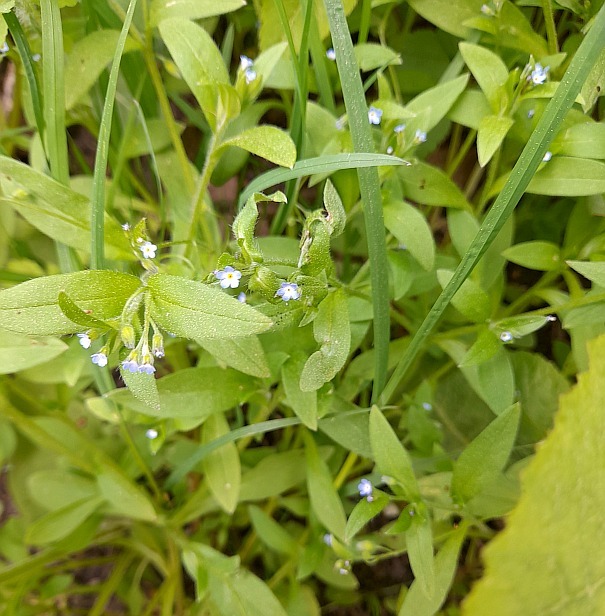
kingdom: Plantae
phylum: Tracheophyta
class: Magnoliopsida
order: Boraginales
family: Boraginaceae
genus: Myosotis
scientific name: Myosotis sparsiflora
